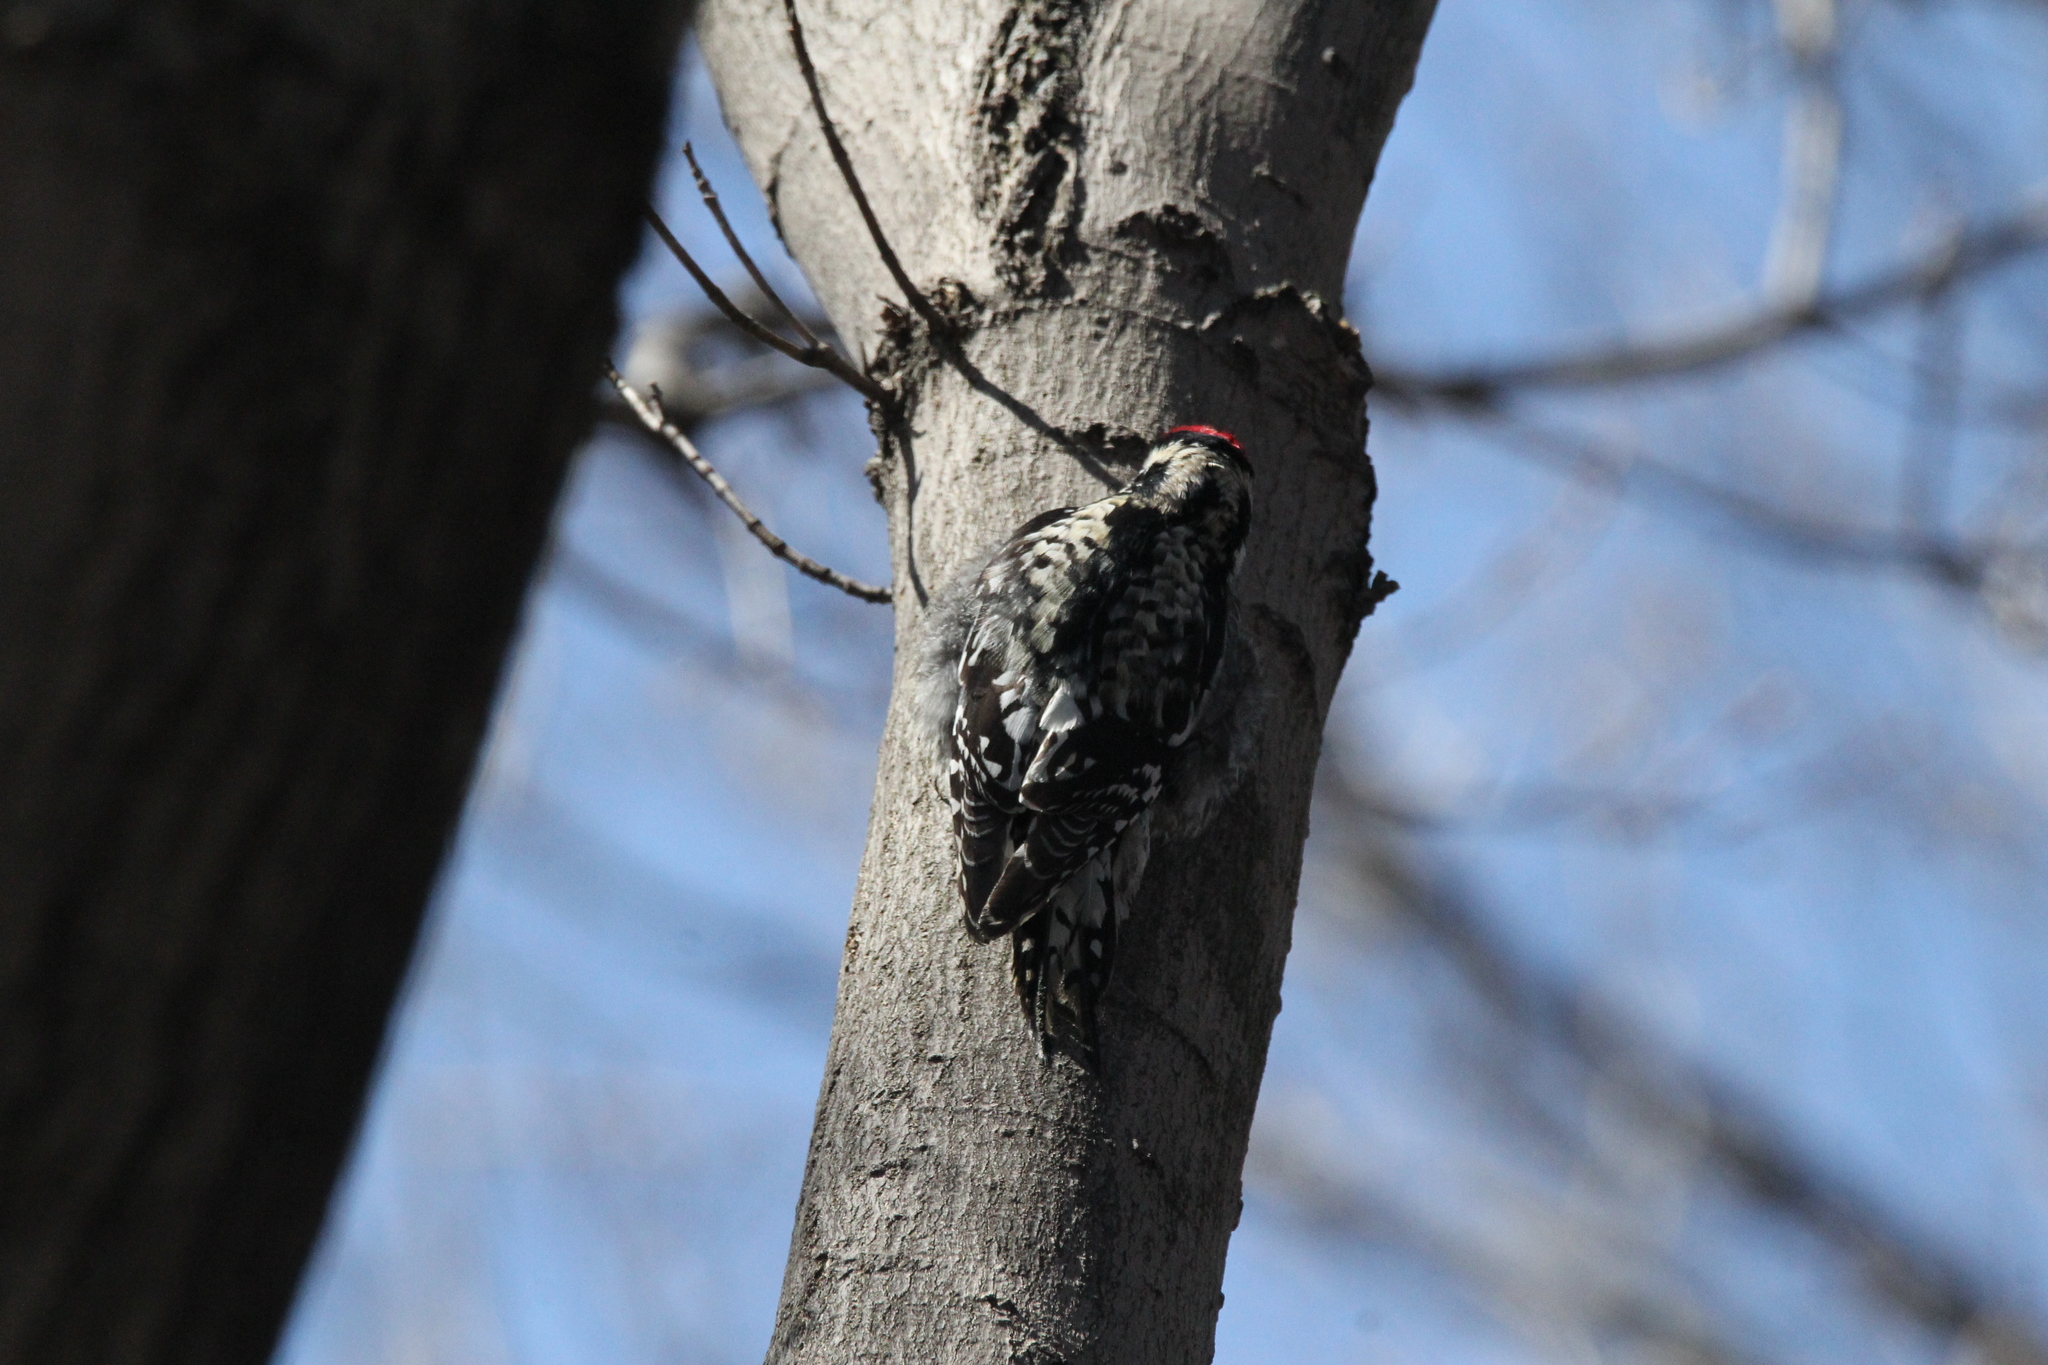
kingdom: Animalia
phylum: Chordata
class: Aves
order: Piciformes
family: Picidae
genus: Sphyrapicus
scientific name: Sphyrapicus varius
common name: Yellow-bellied sapsucker
